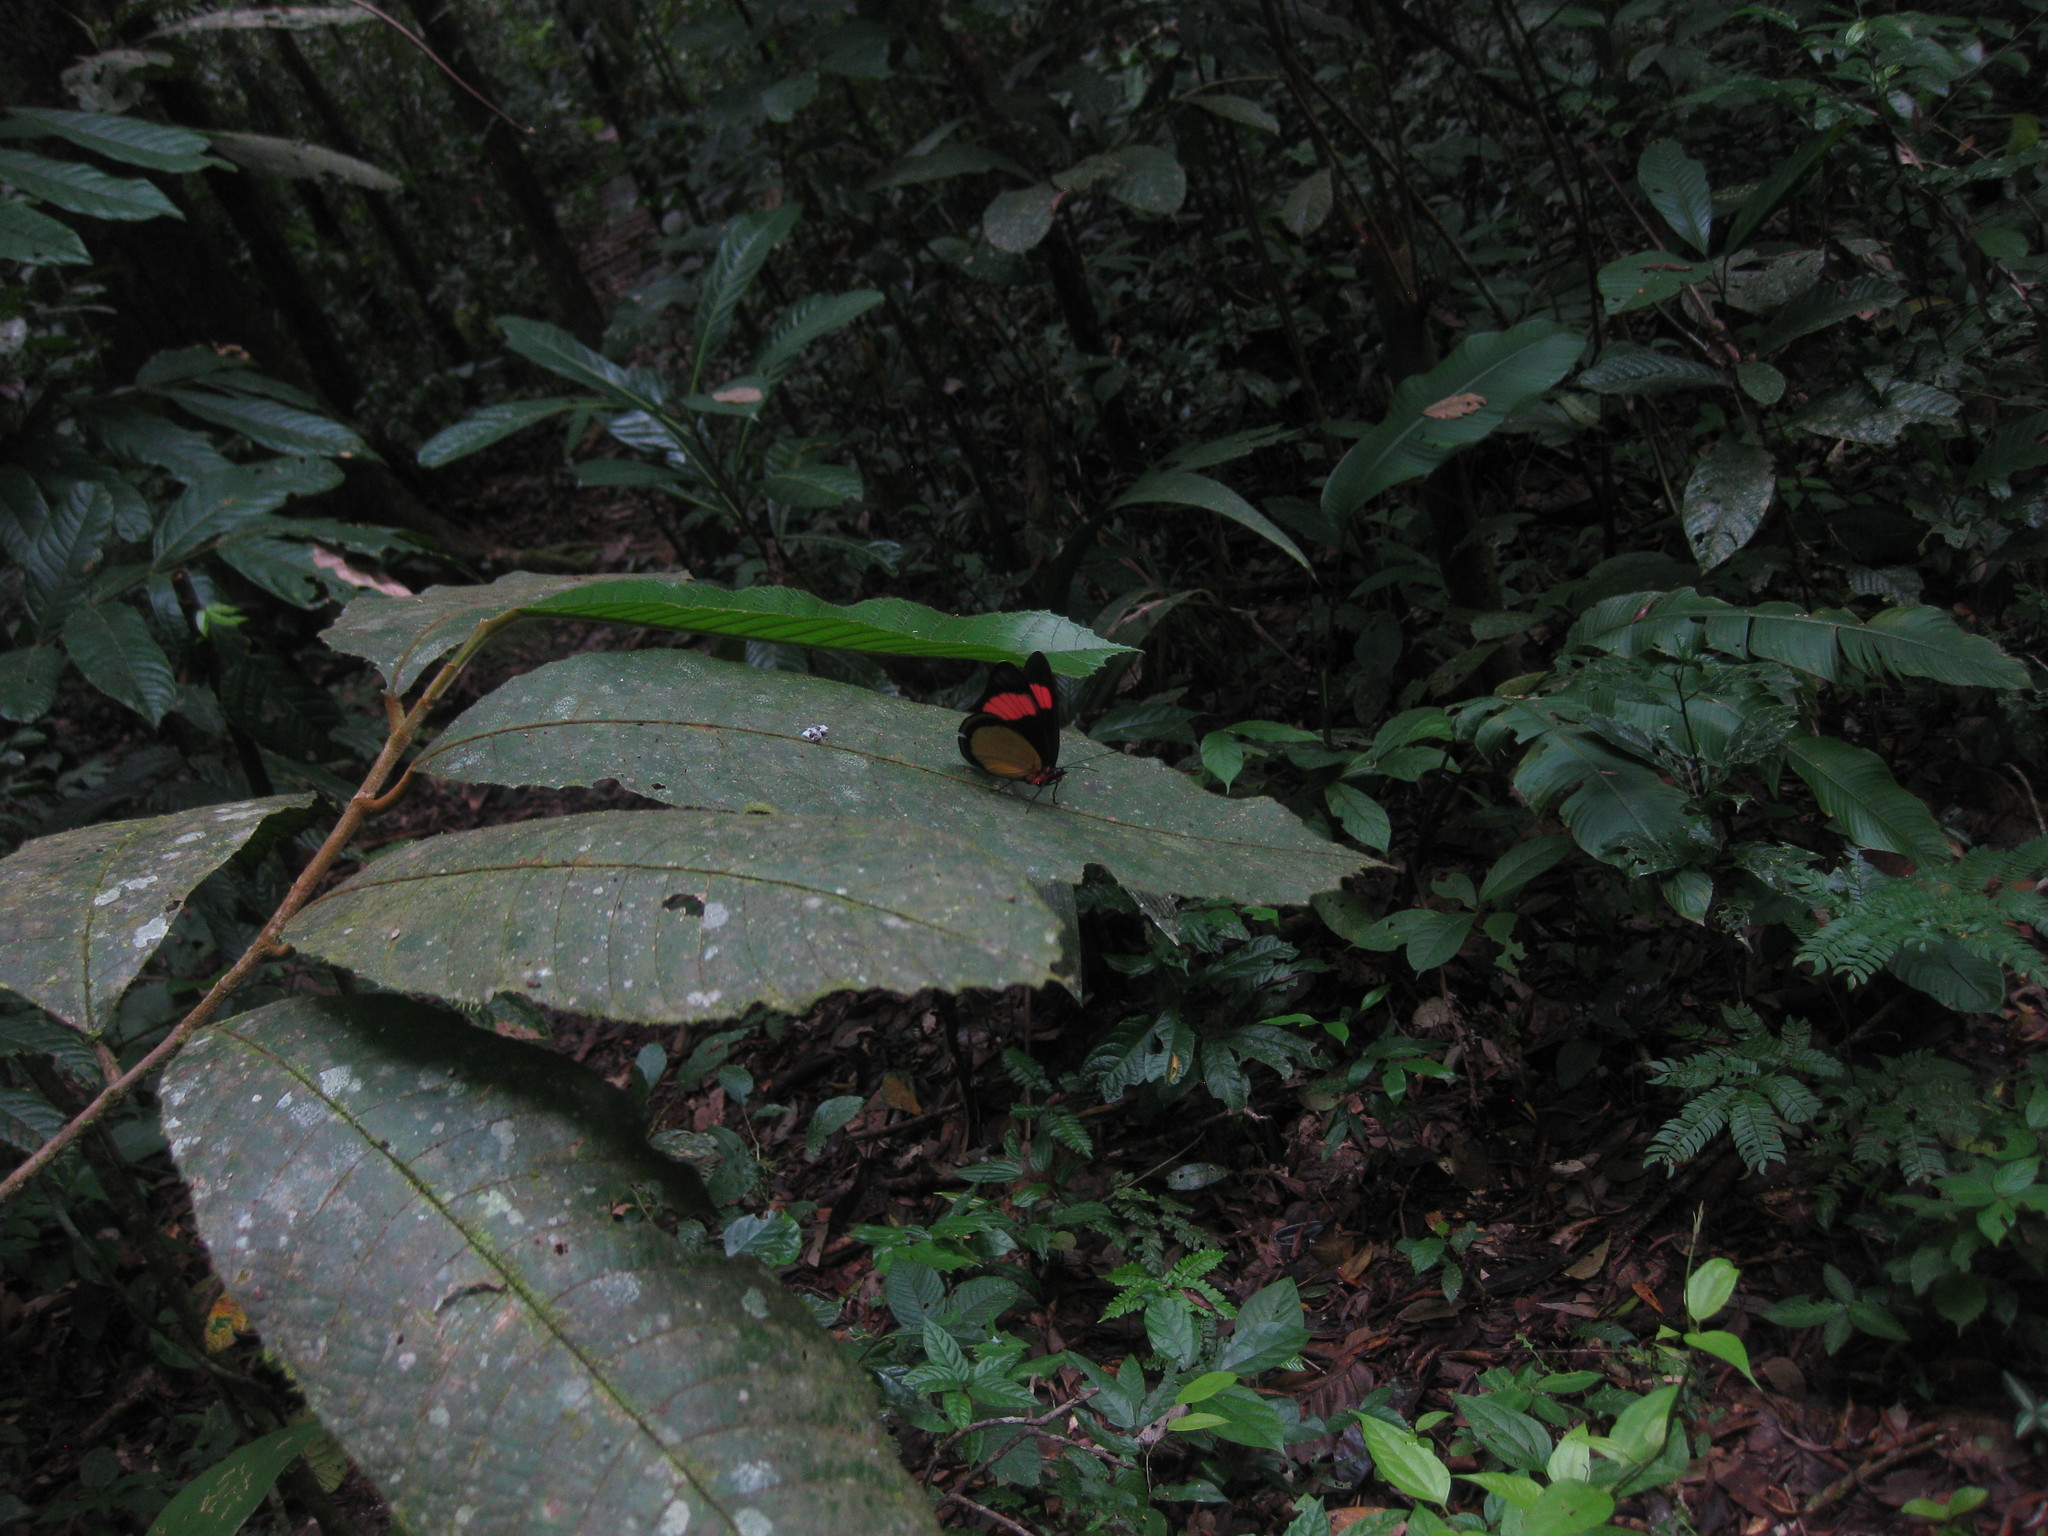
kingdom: Animalia
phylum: Arthropoda
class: Insecta
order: Lepidoptera
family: Nymphalidae
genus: Batesia
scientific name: Batesia hypochlora
